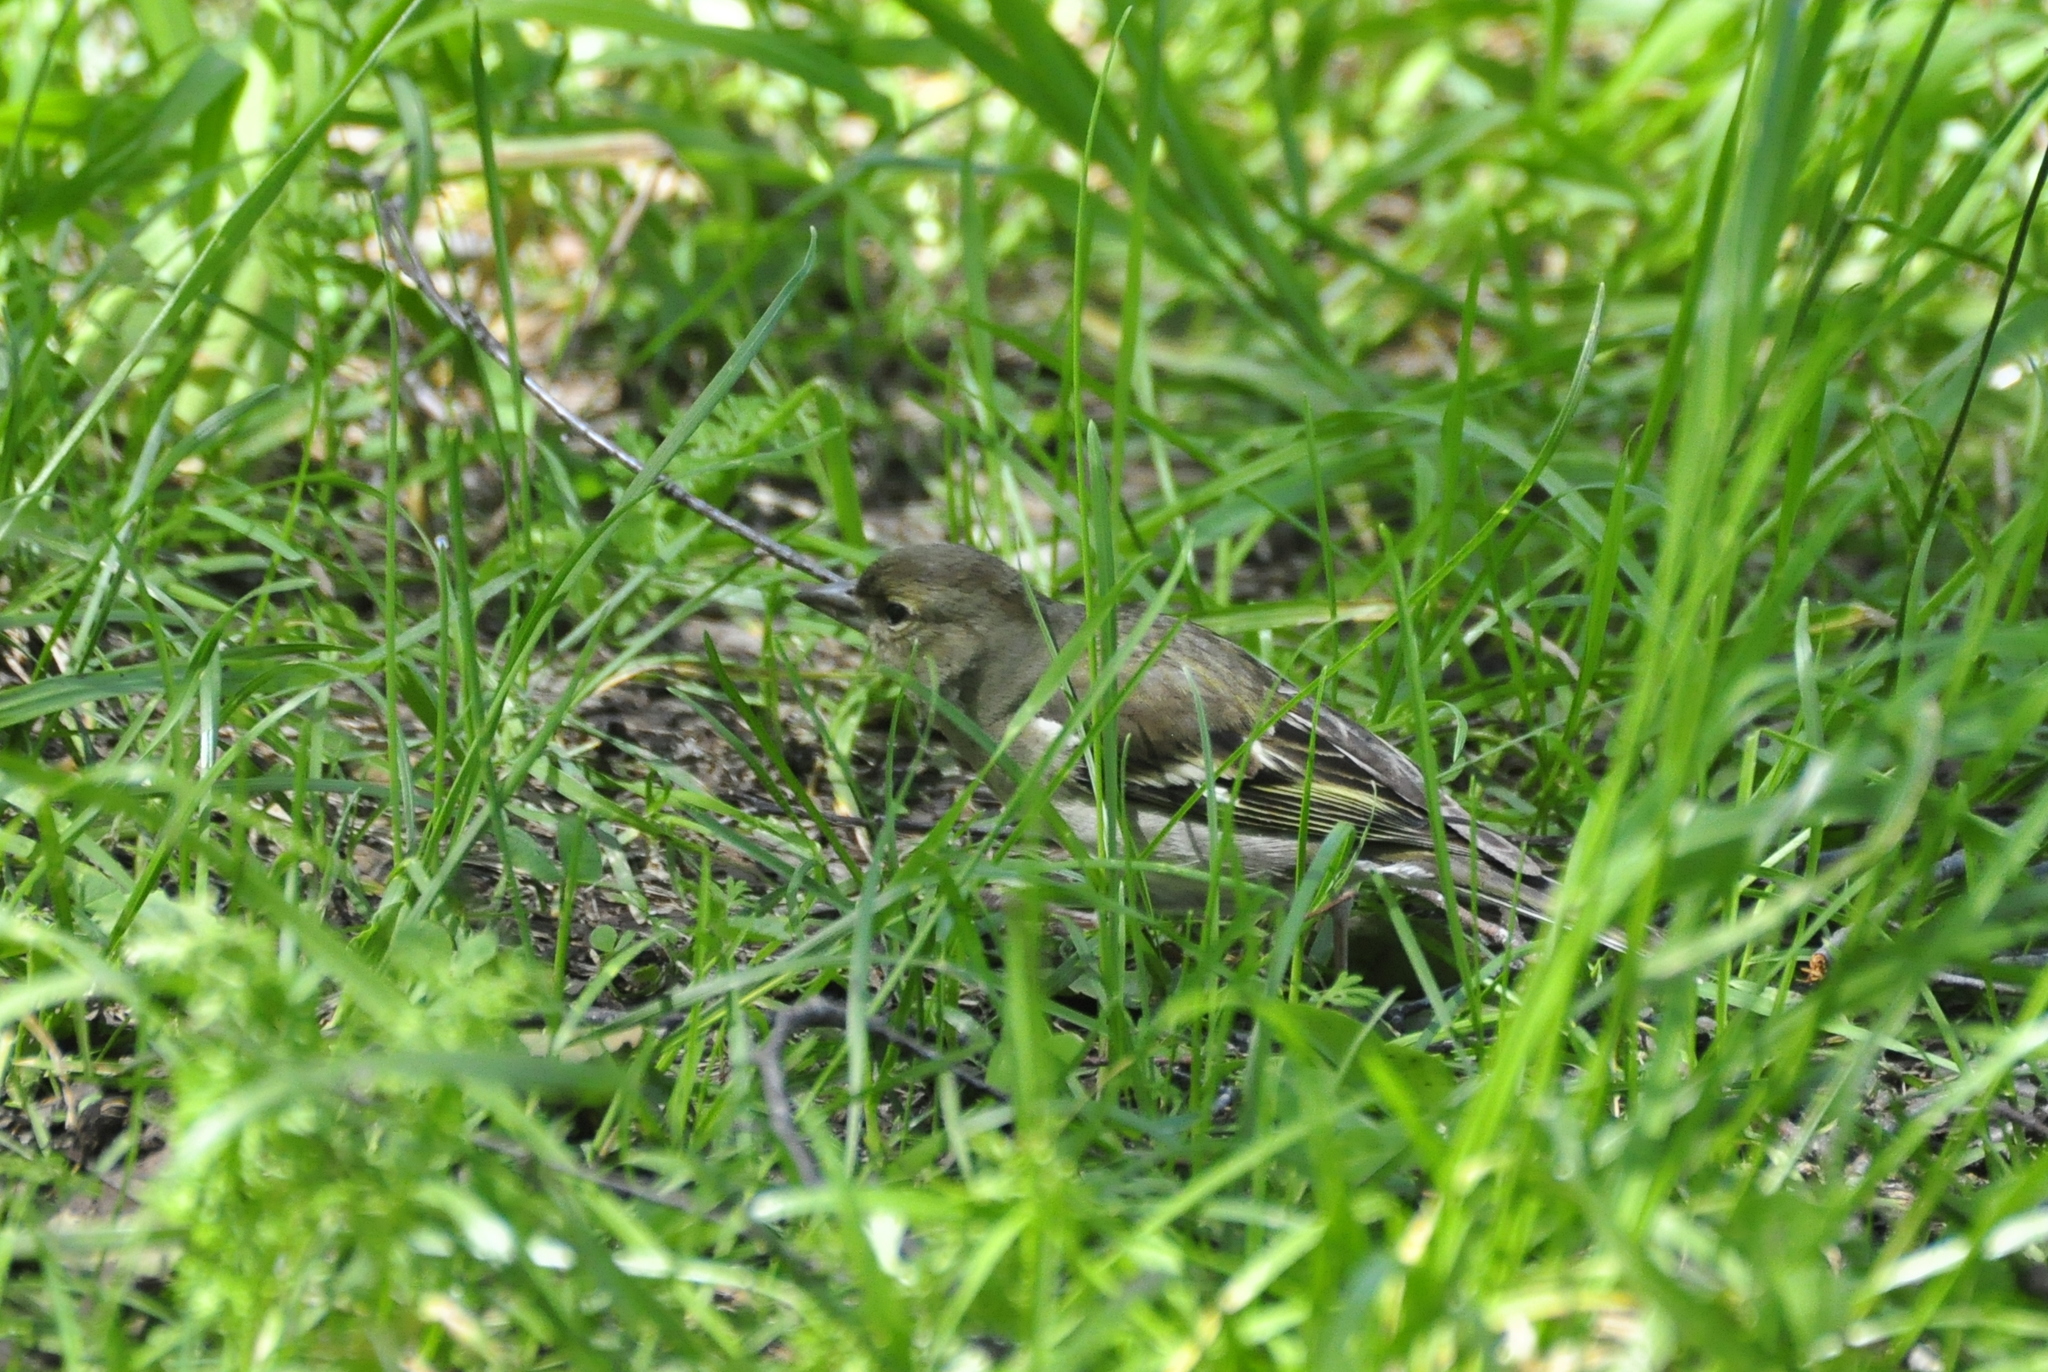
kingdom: Plantae
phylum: Tracheophyta
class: Liliopsida
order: Poales
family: Poaceae
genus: Chloris
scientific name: Chloris chloris
